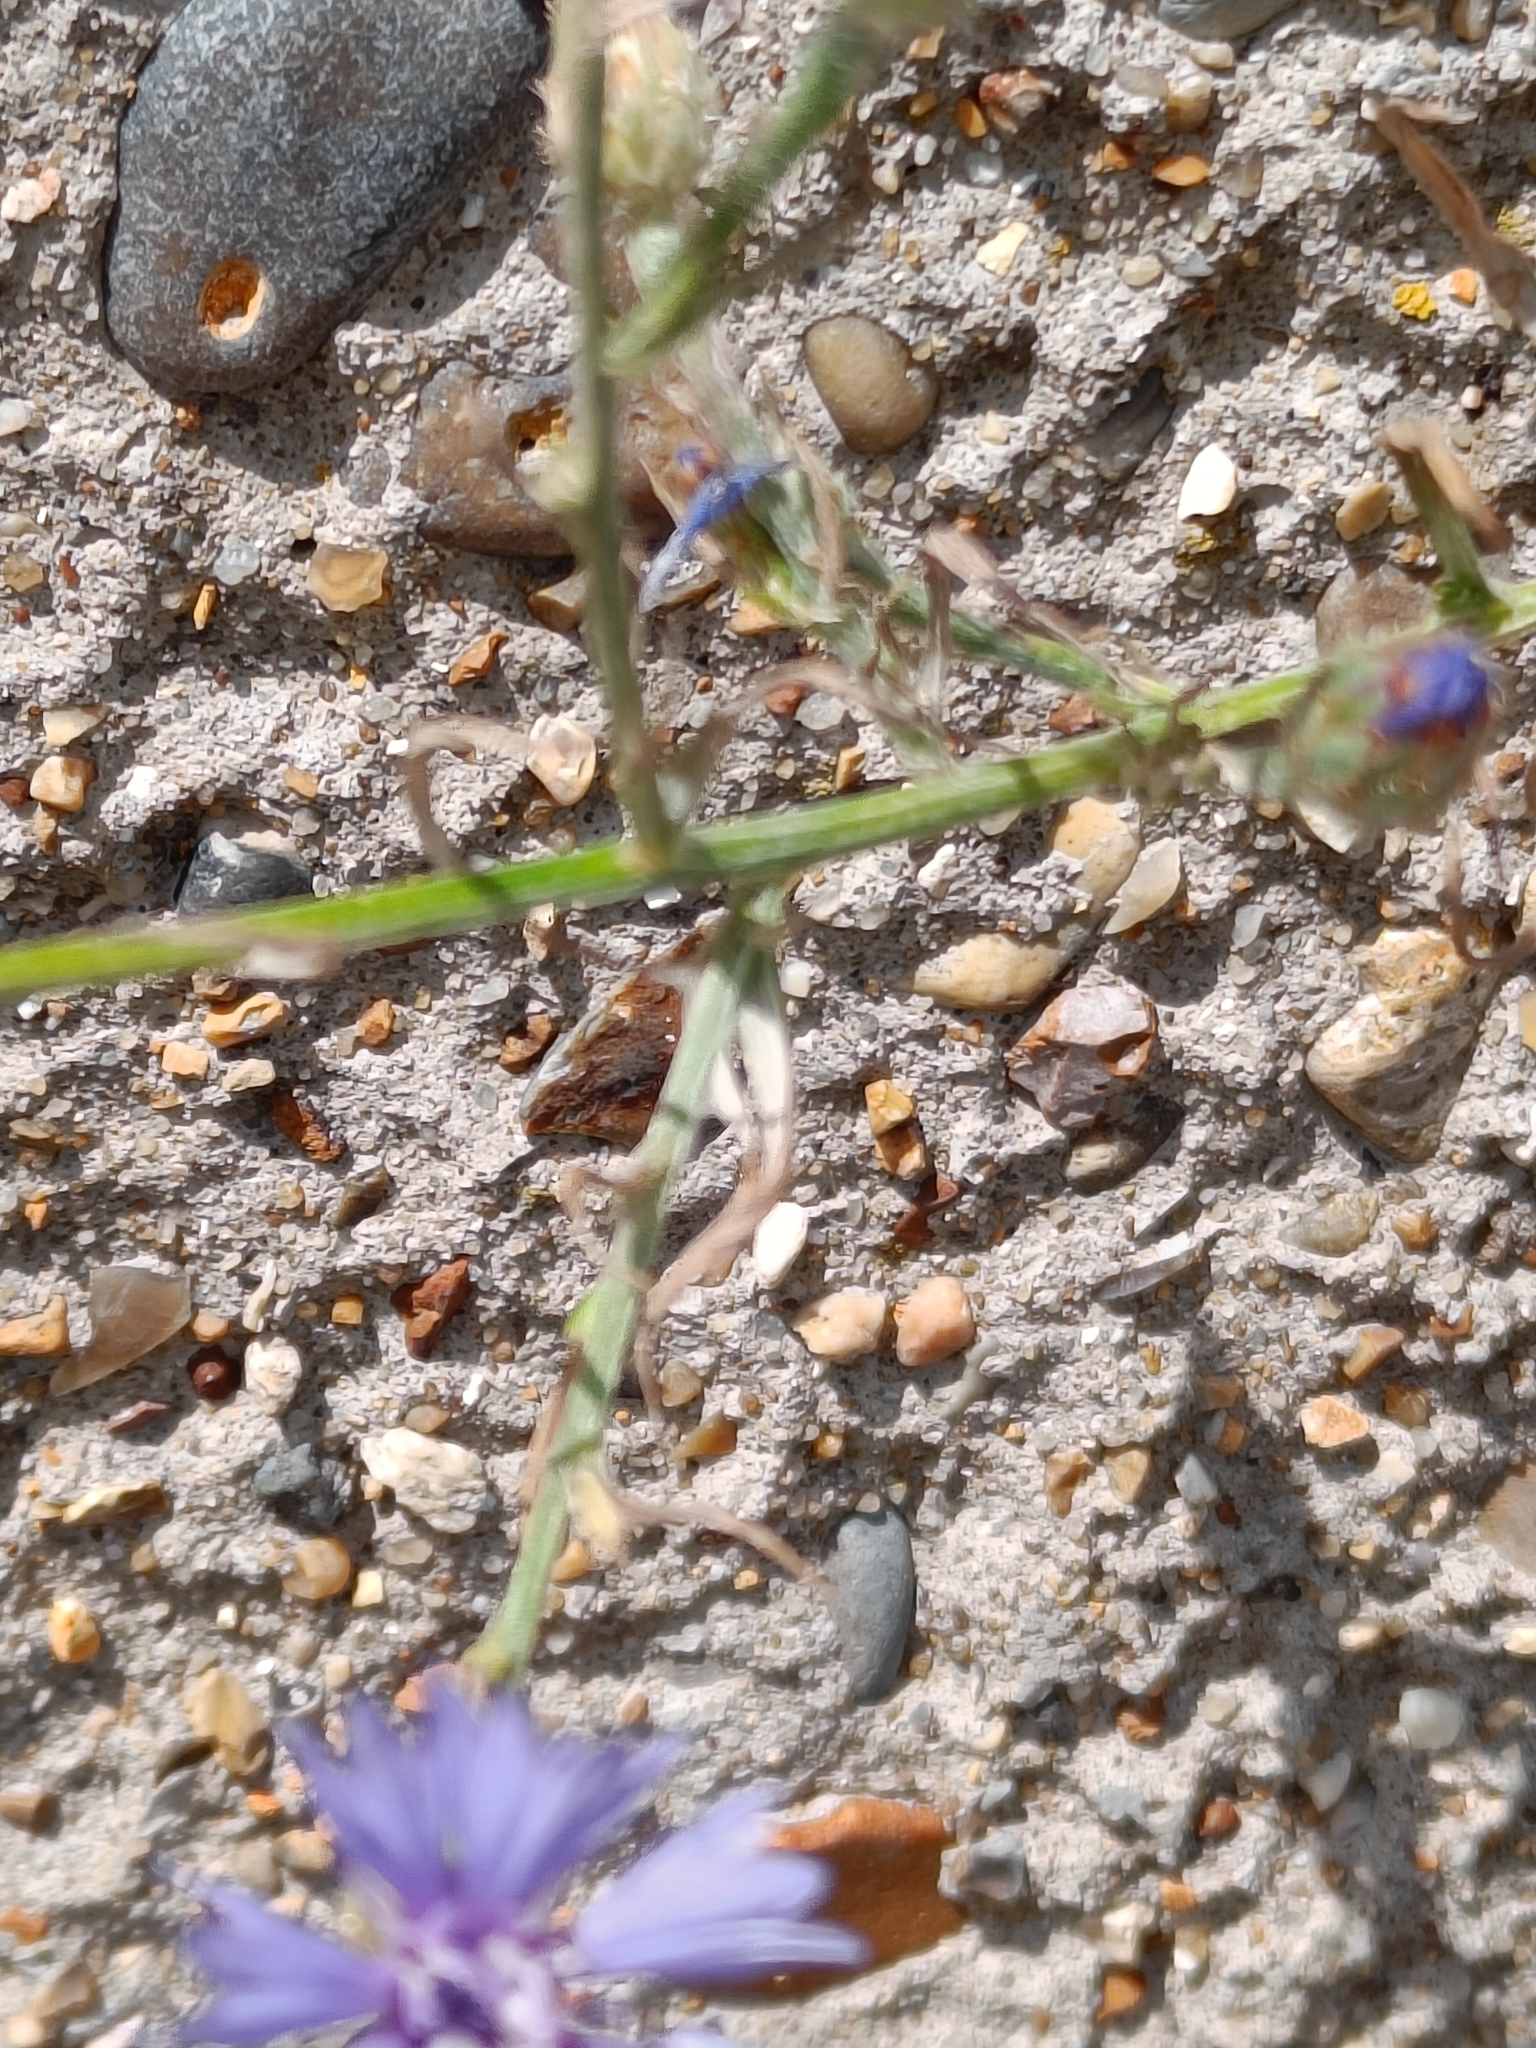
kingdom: Plantae
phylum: Tracheophyta
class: Magnoliopsida
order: Asterales
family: Asteraceae
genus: Centaurea
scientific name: Centaurea cyanus
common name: Cornflower
